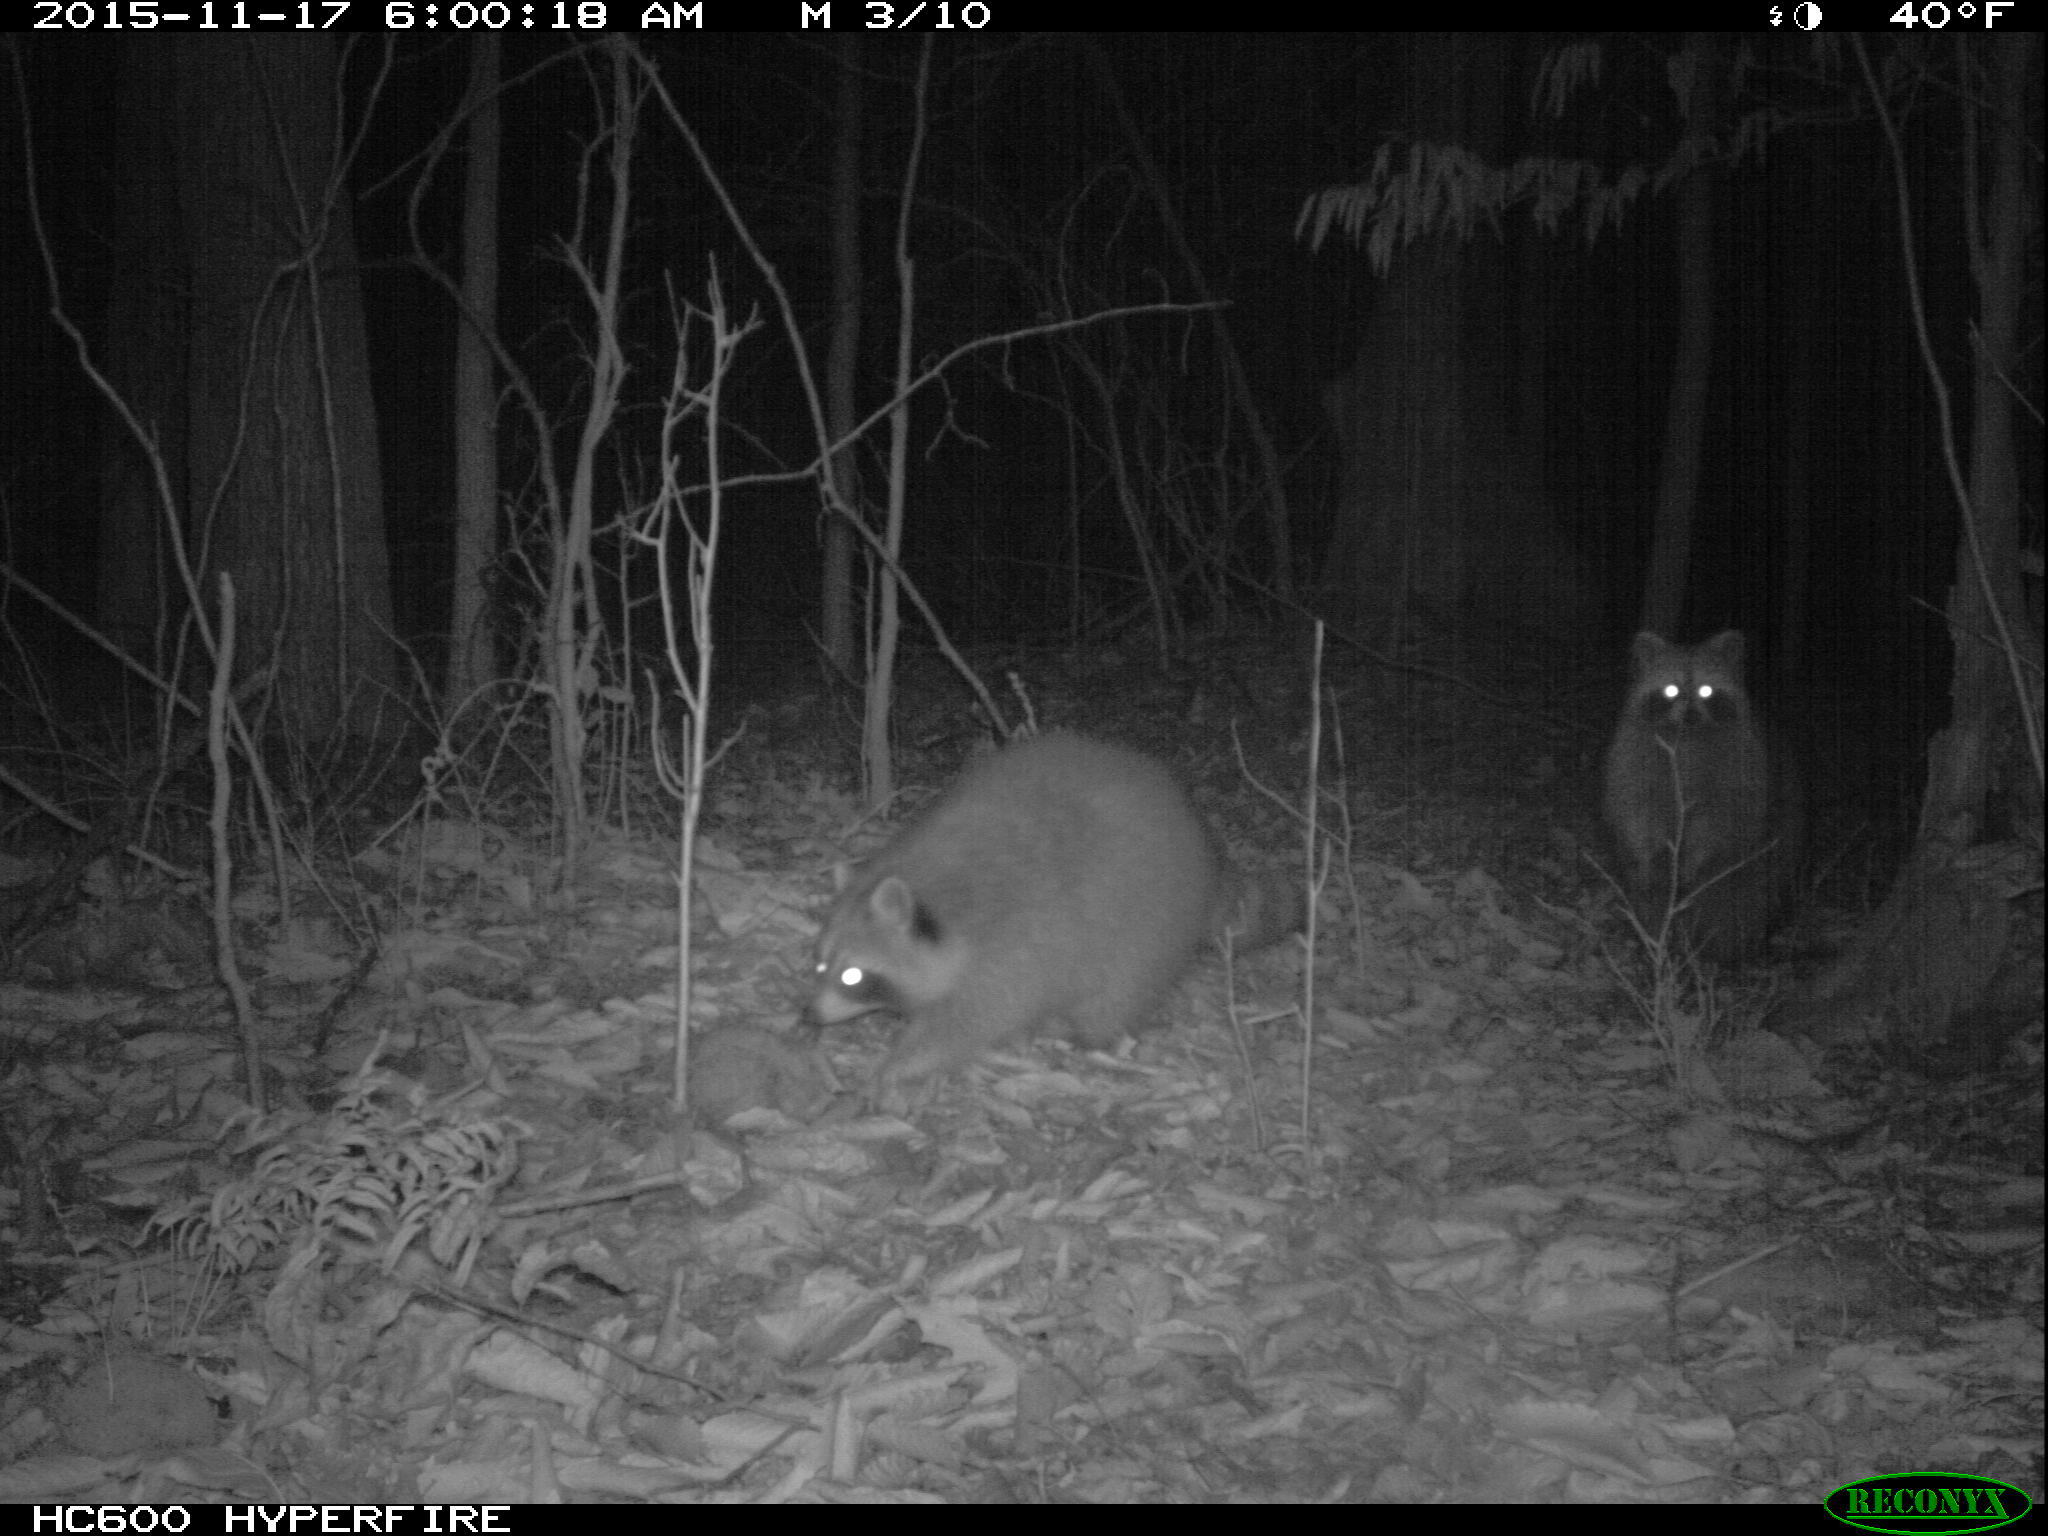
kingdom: Animalia
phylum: Chordata
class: Mammalia
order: Carnivora
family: Procyonidae
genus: Procyon
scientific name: Procyon lotor
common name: Raccoon
